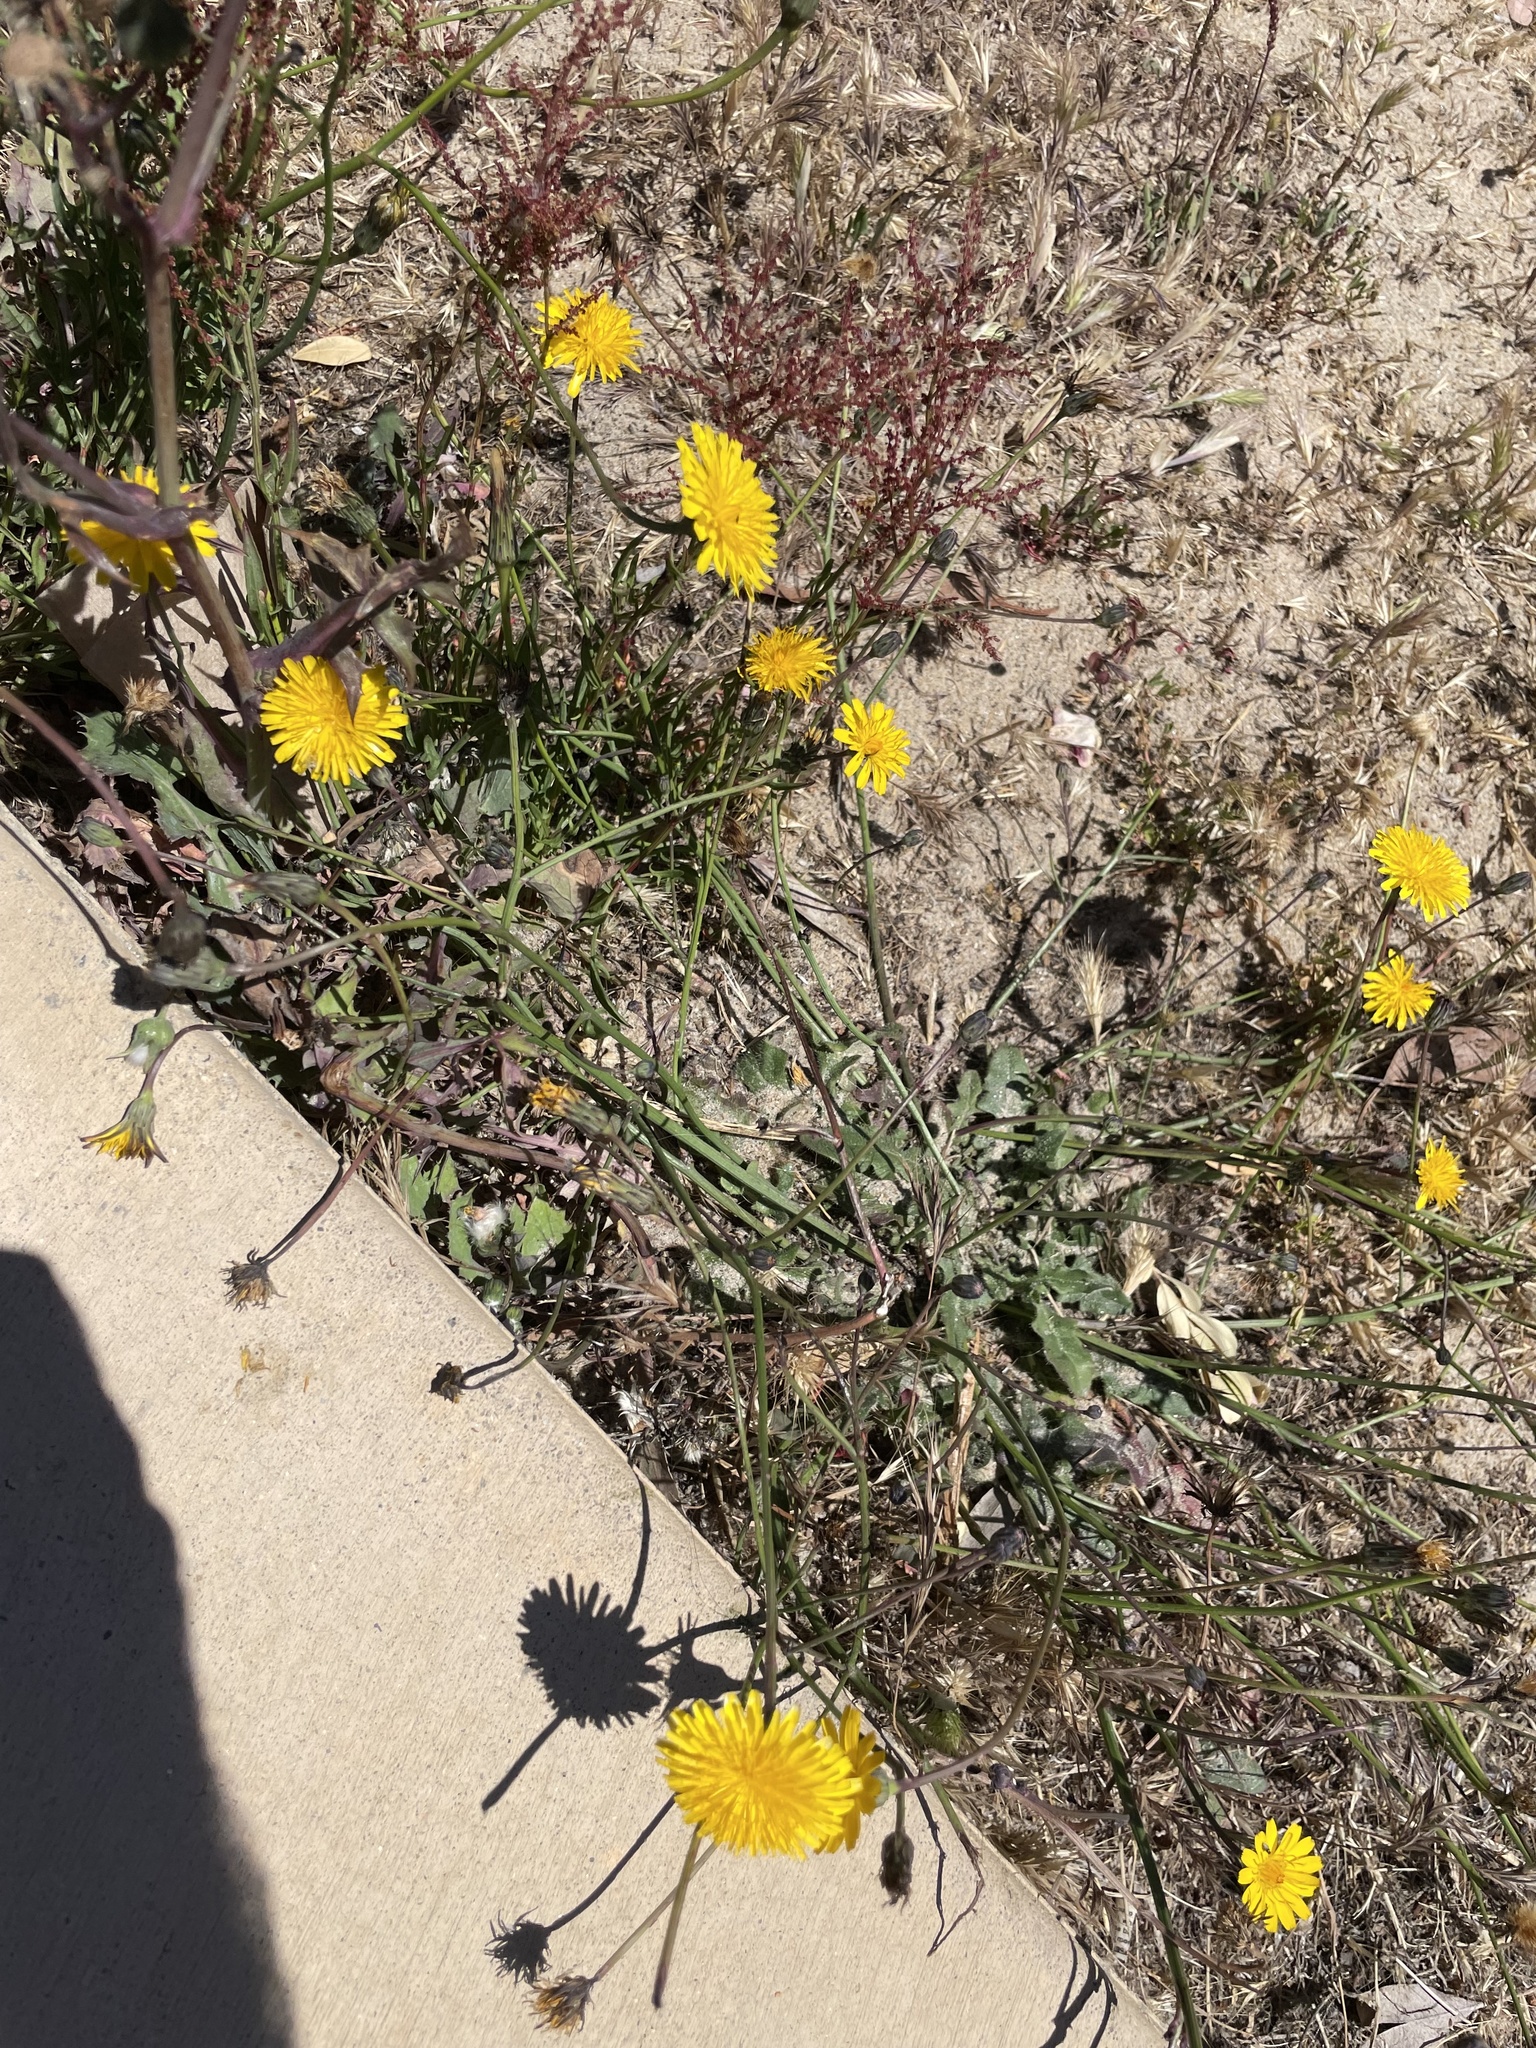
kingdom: Plantae
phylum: Tracheophyta
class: Magnoliopsida
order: Asterales
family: Asteraceae
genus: Hypochaeris
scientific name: Hypochaeris radicata
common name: Flatweed
